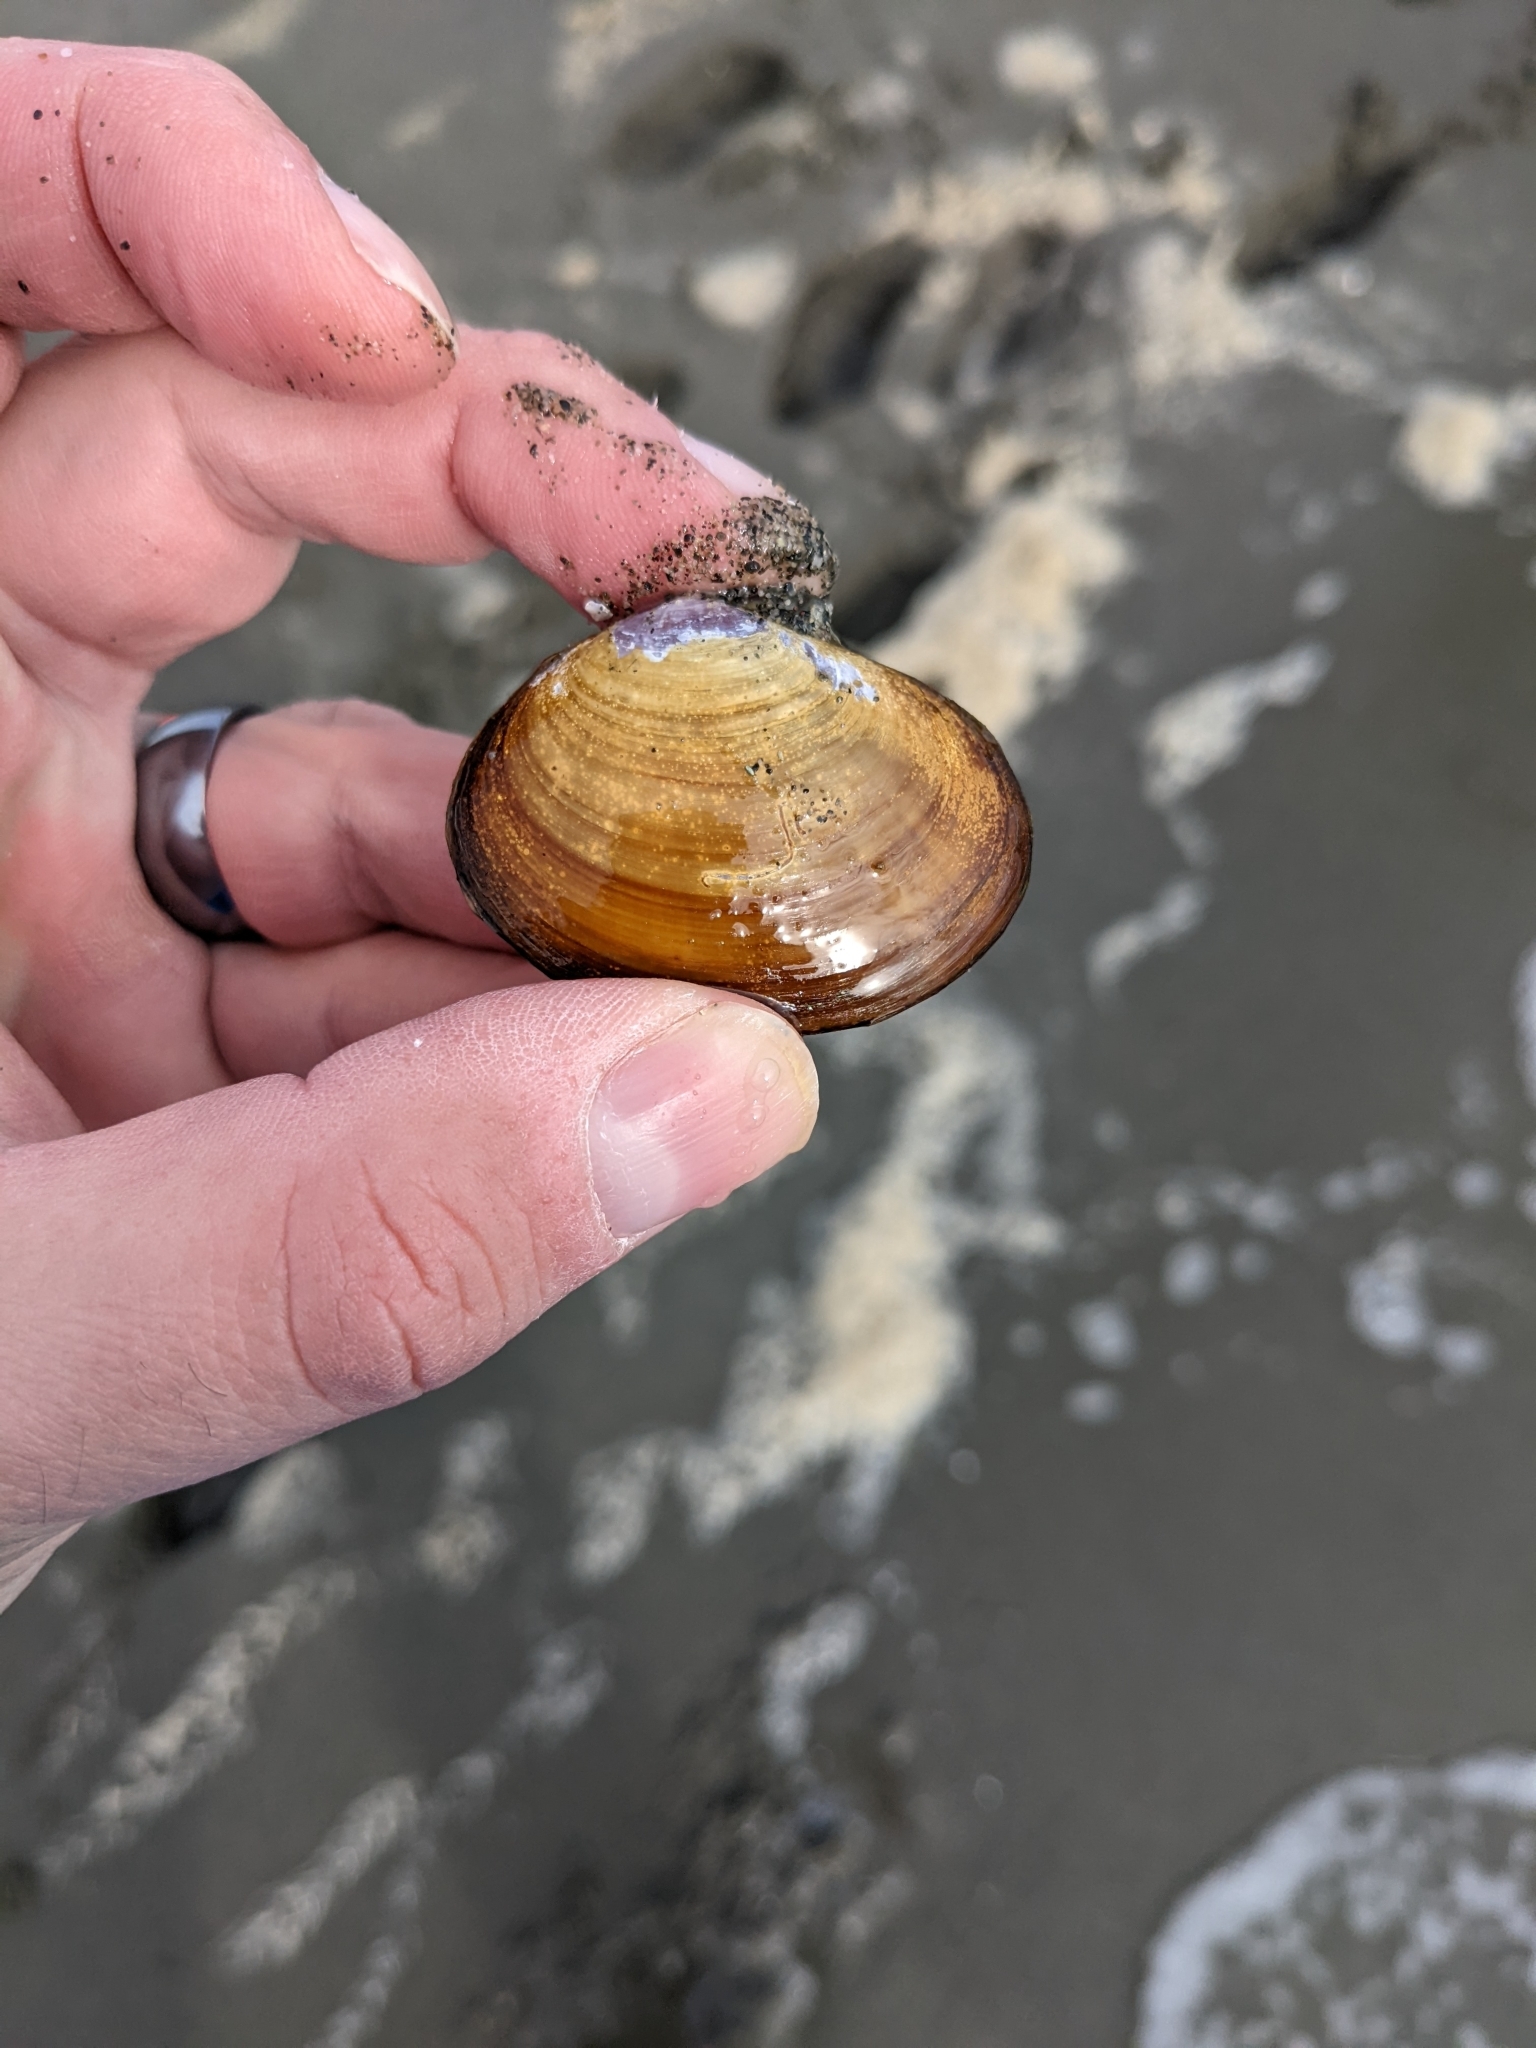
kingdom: Animalia
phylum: Mollusca
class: Bivalvia
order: Cardiida
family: Psammobiidae
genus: Nuttallia
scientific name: Nuttallia obscurata
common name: Purple mahogany-clam
